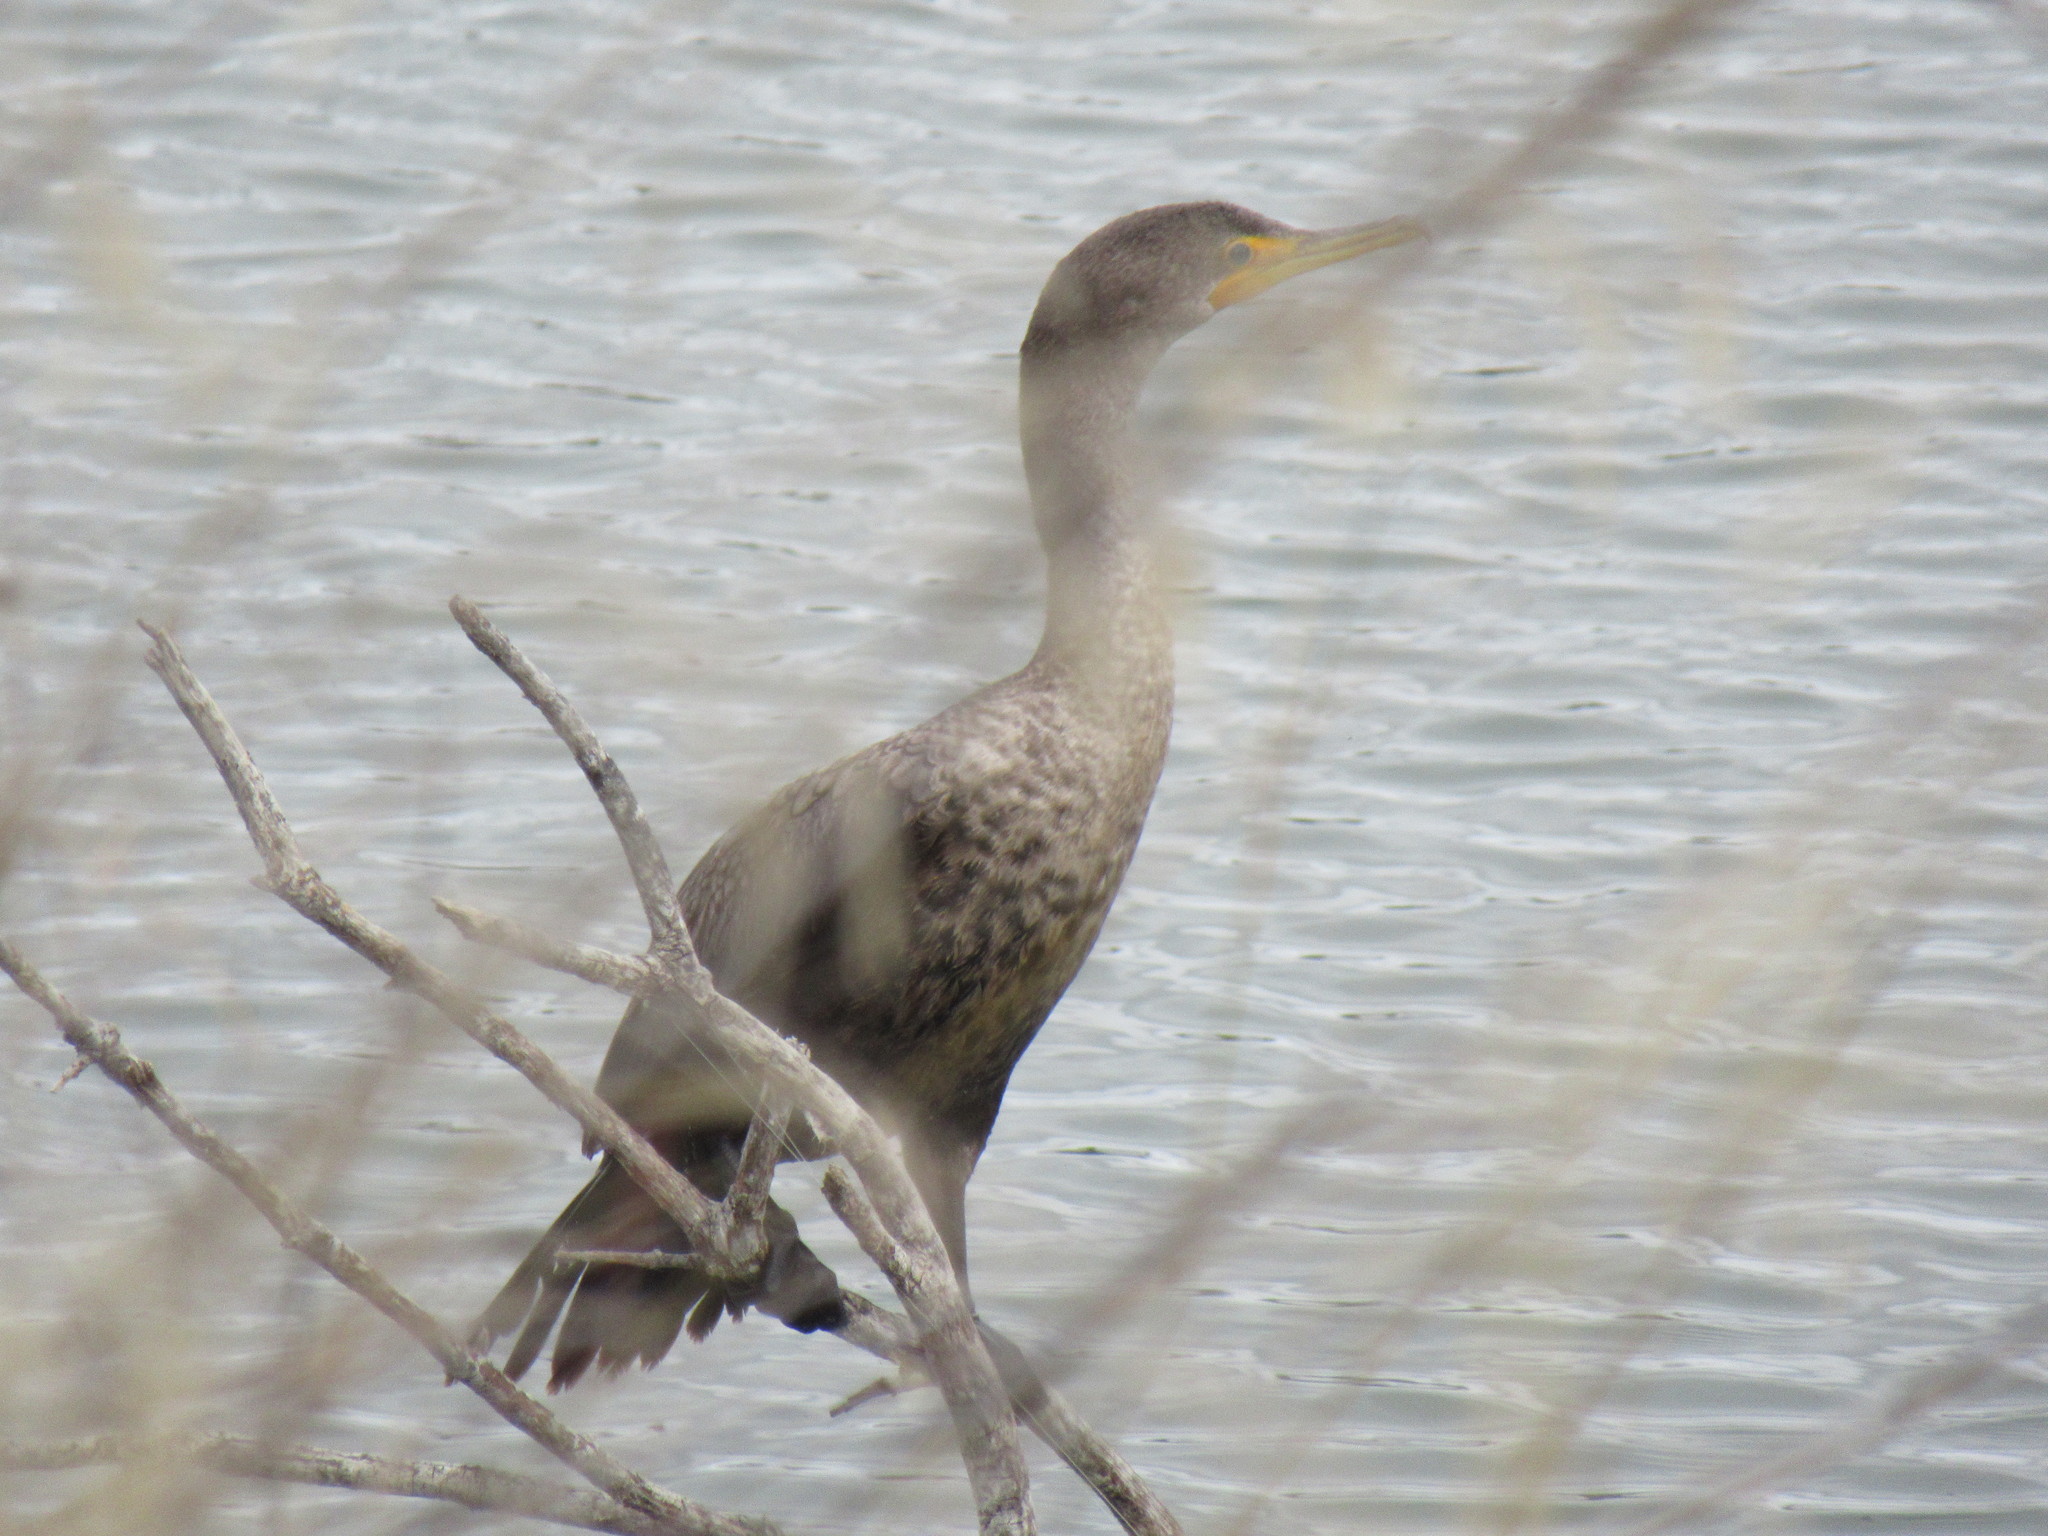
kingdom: Animalia
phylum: Chordata
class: Aves
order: Suliformes
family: Phalacrocoracidae
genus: Phalacrocorax
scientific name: Phalacrocorax auritus
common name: Double-crested cormorant
